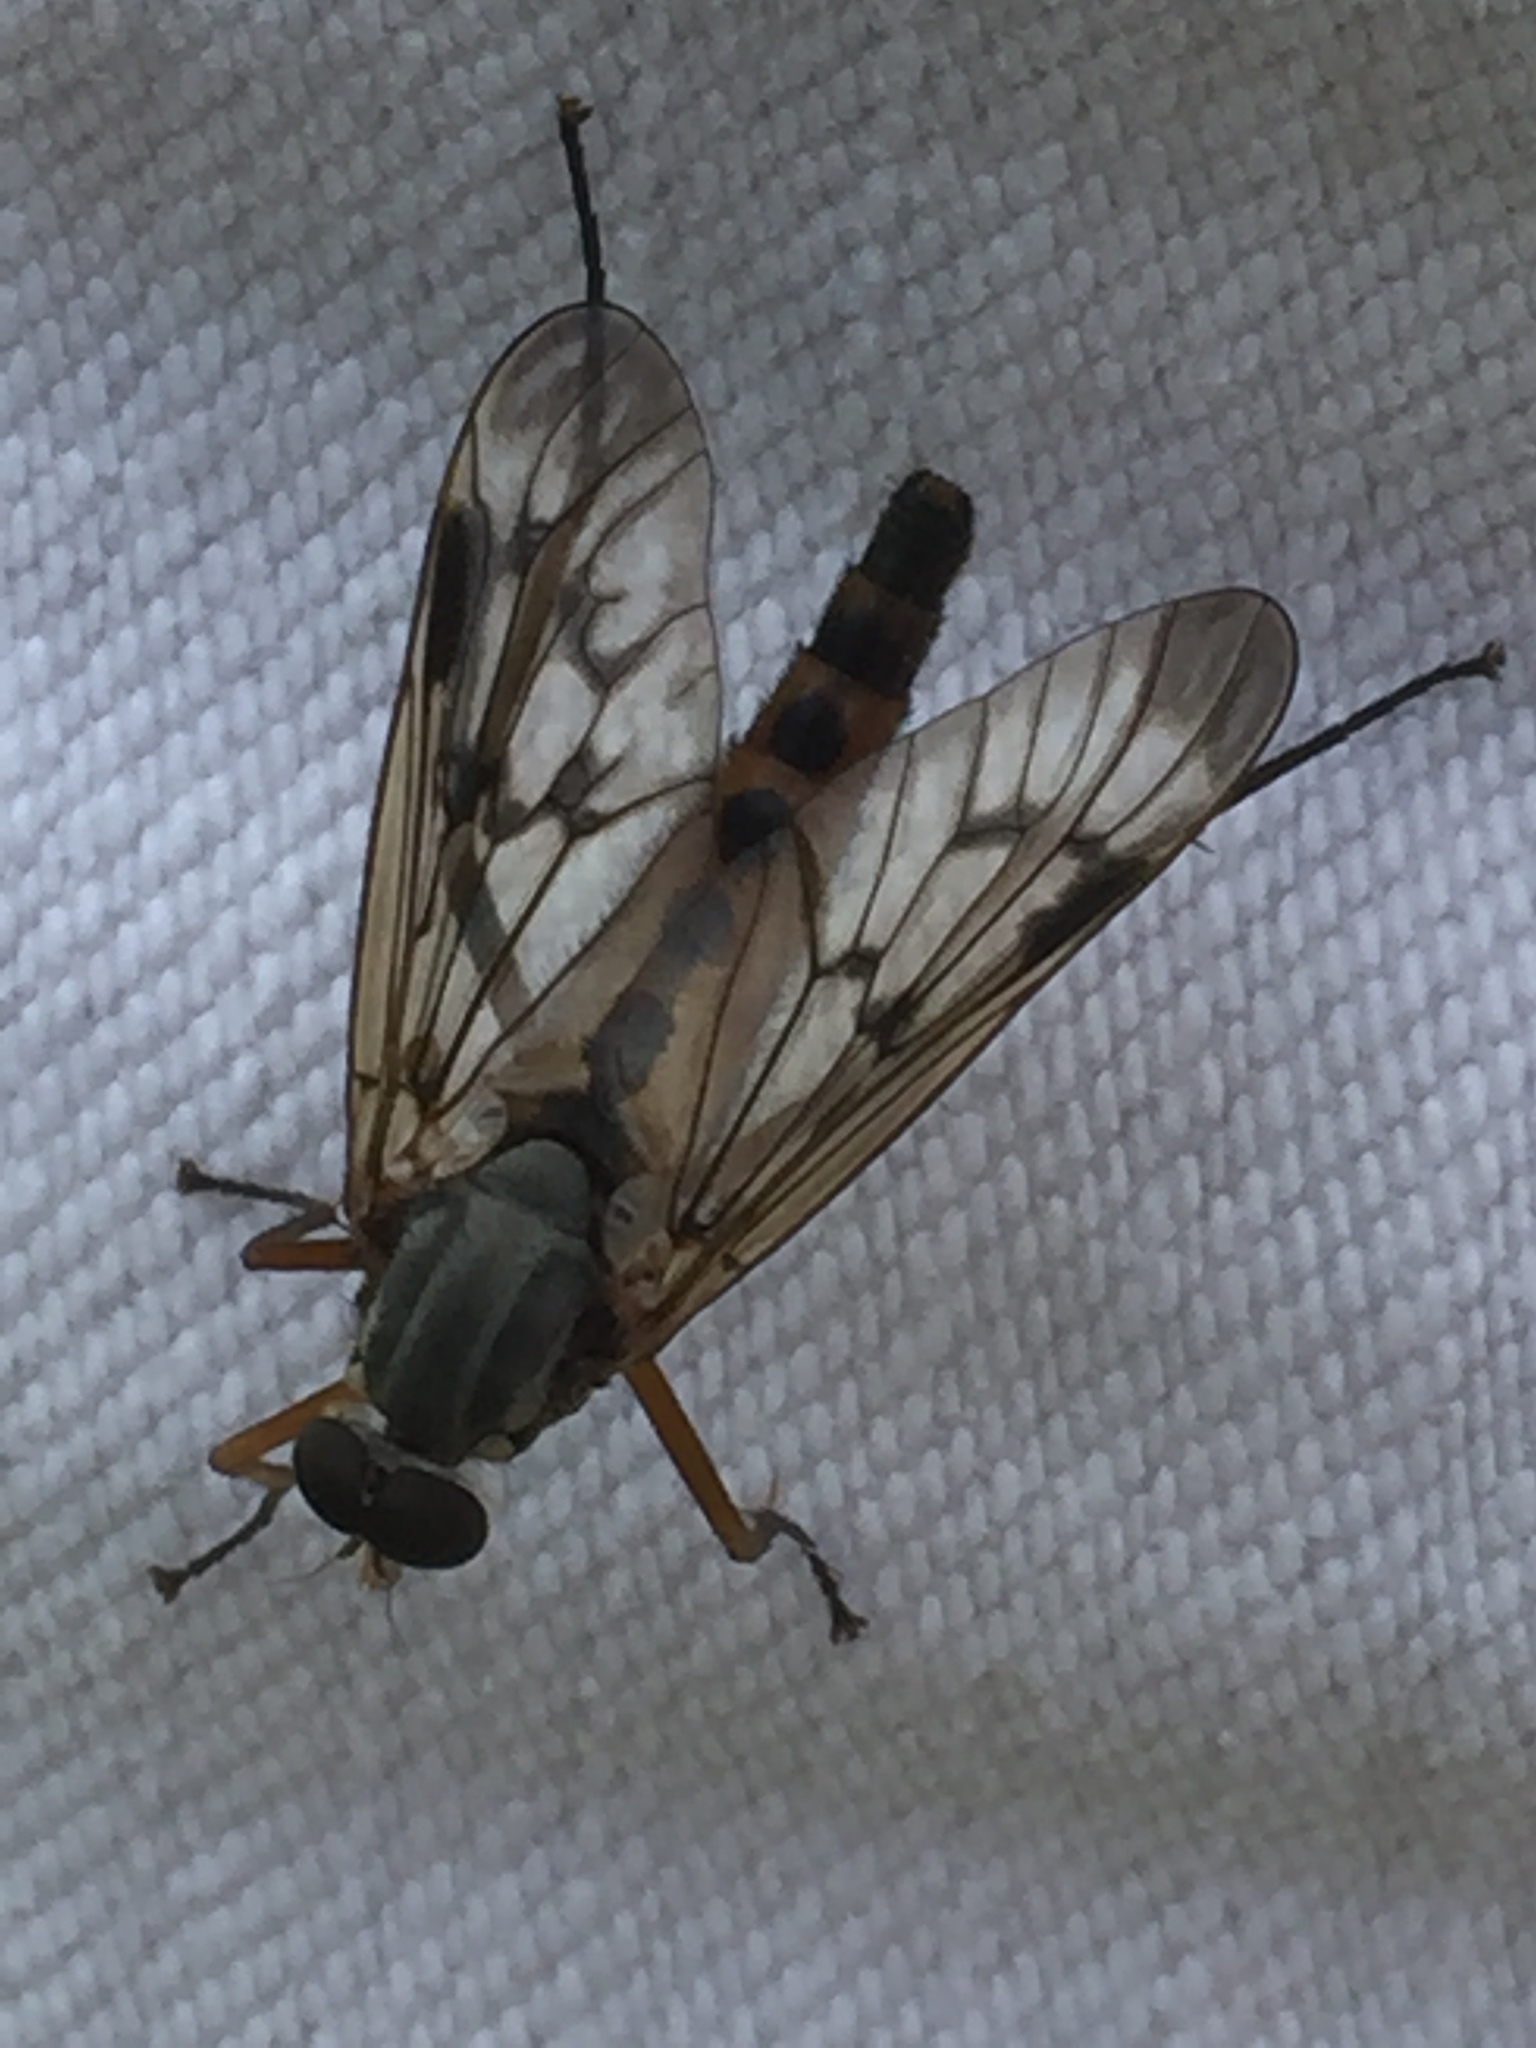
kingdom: Animalia
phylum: Arthropoda
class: Insecta
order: Diptera
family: Rhagionidae
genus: Rhagio
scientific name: Rhagio scolopacea
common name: Downlooker snipefly
